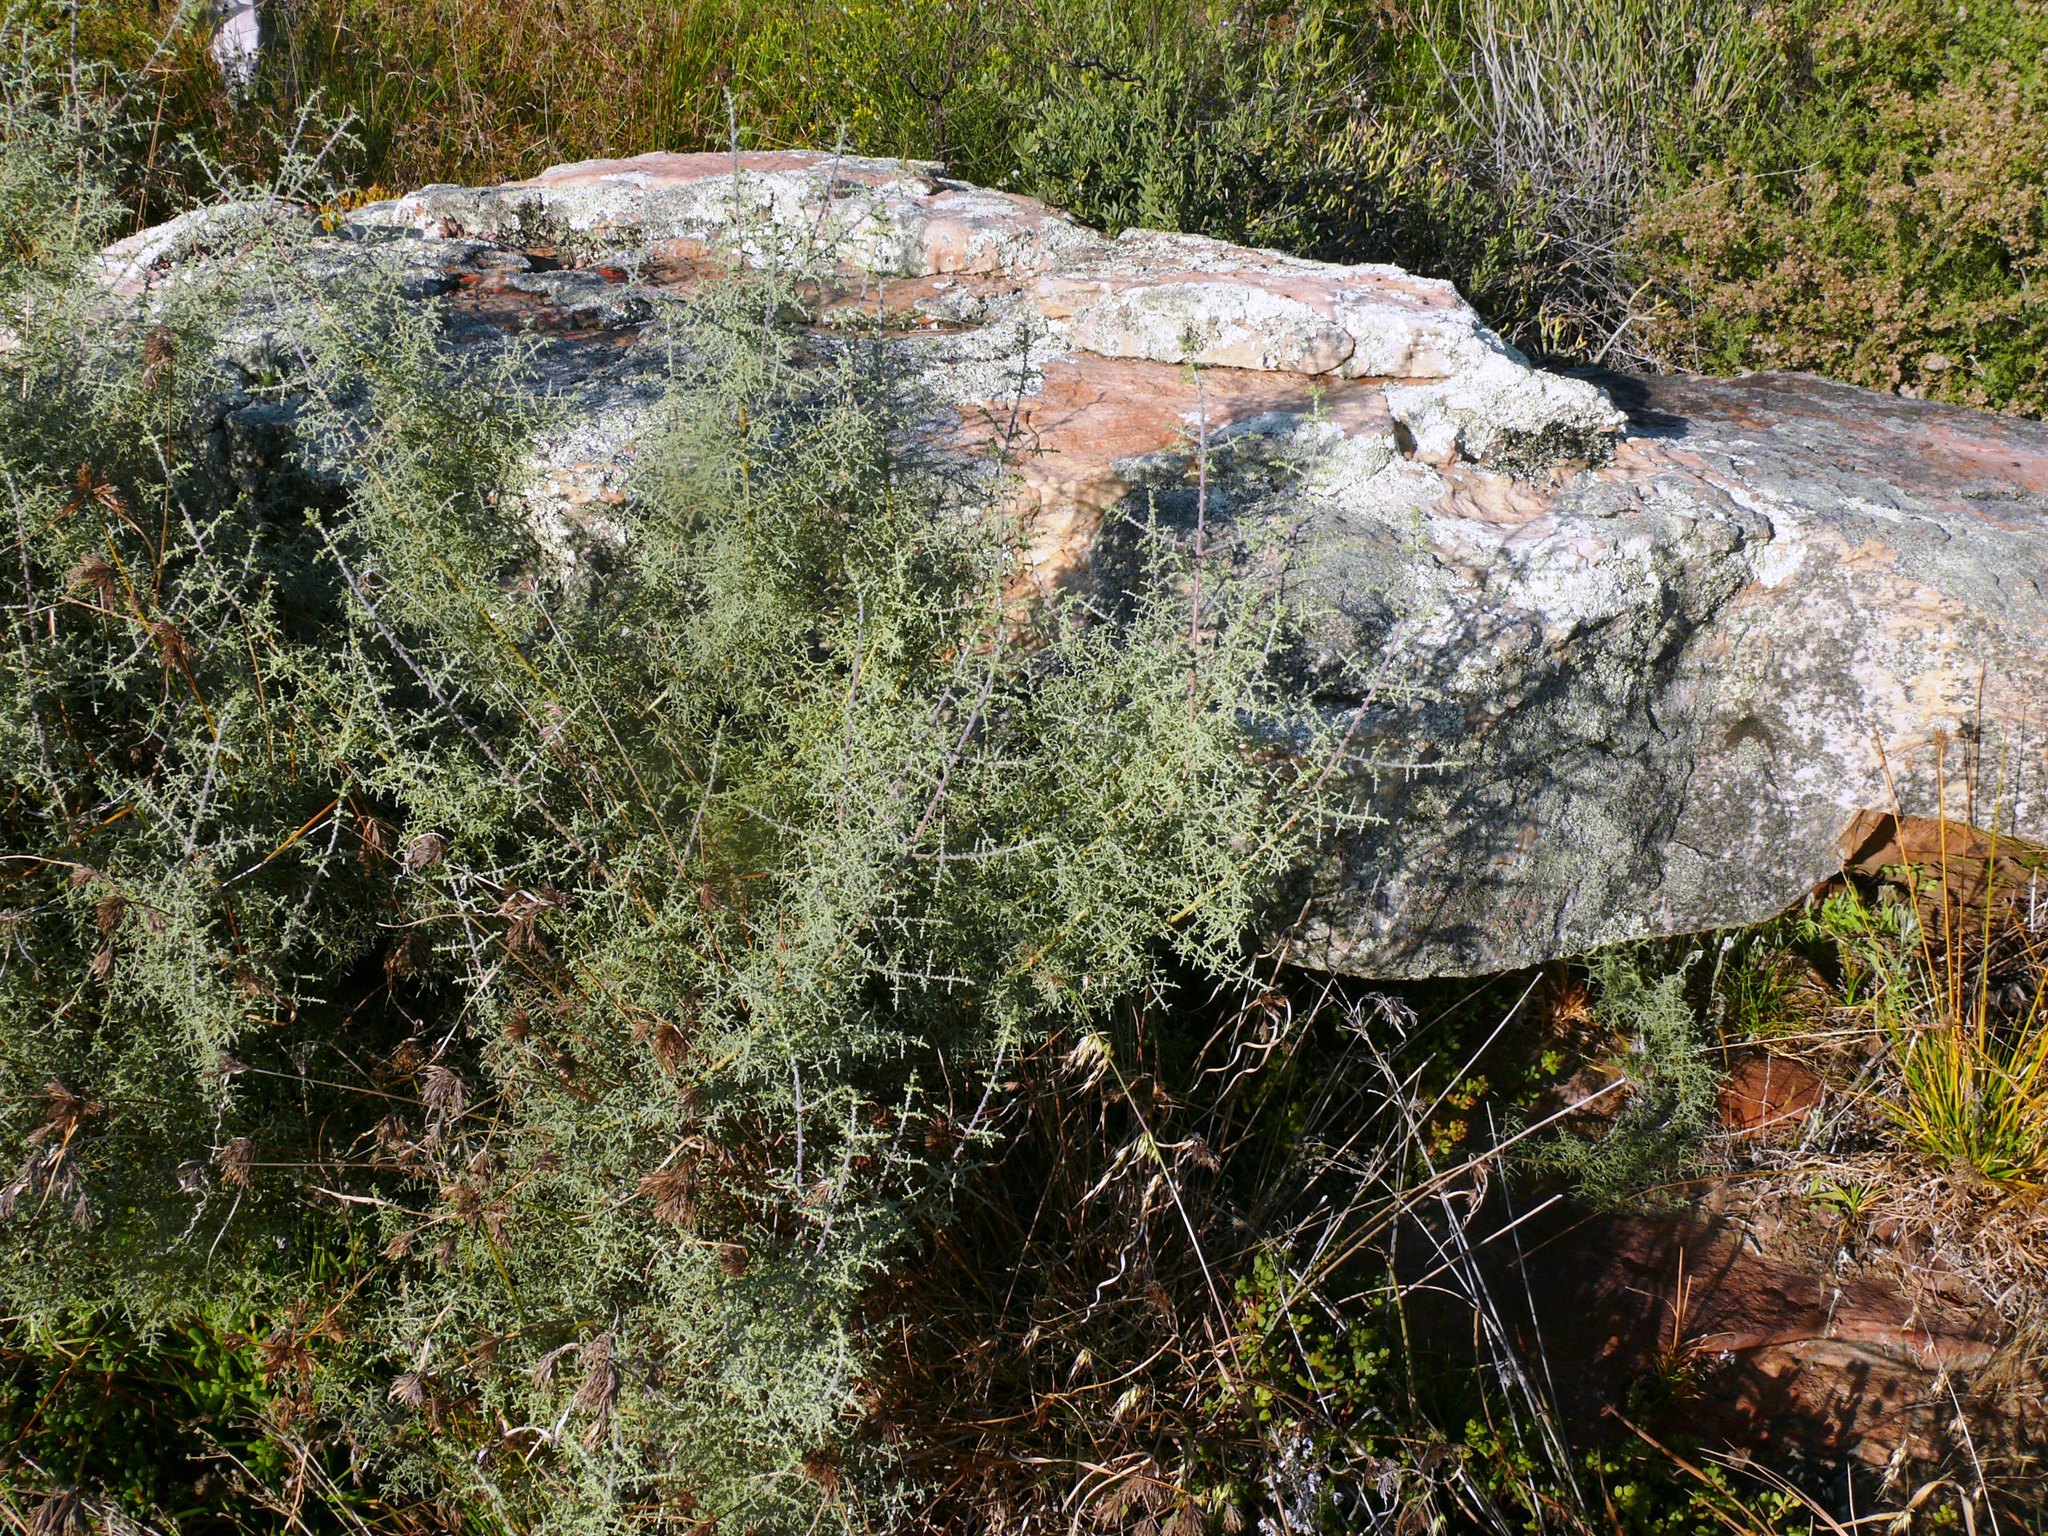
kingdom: Plantae
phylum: Tracheophyta
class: Magnoliopsida
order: Asterales
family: Asteraceae
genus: Seriphium
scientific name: Seriphium plumosum
